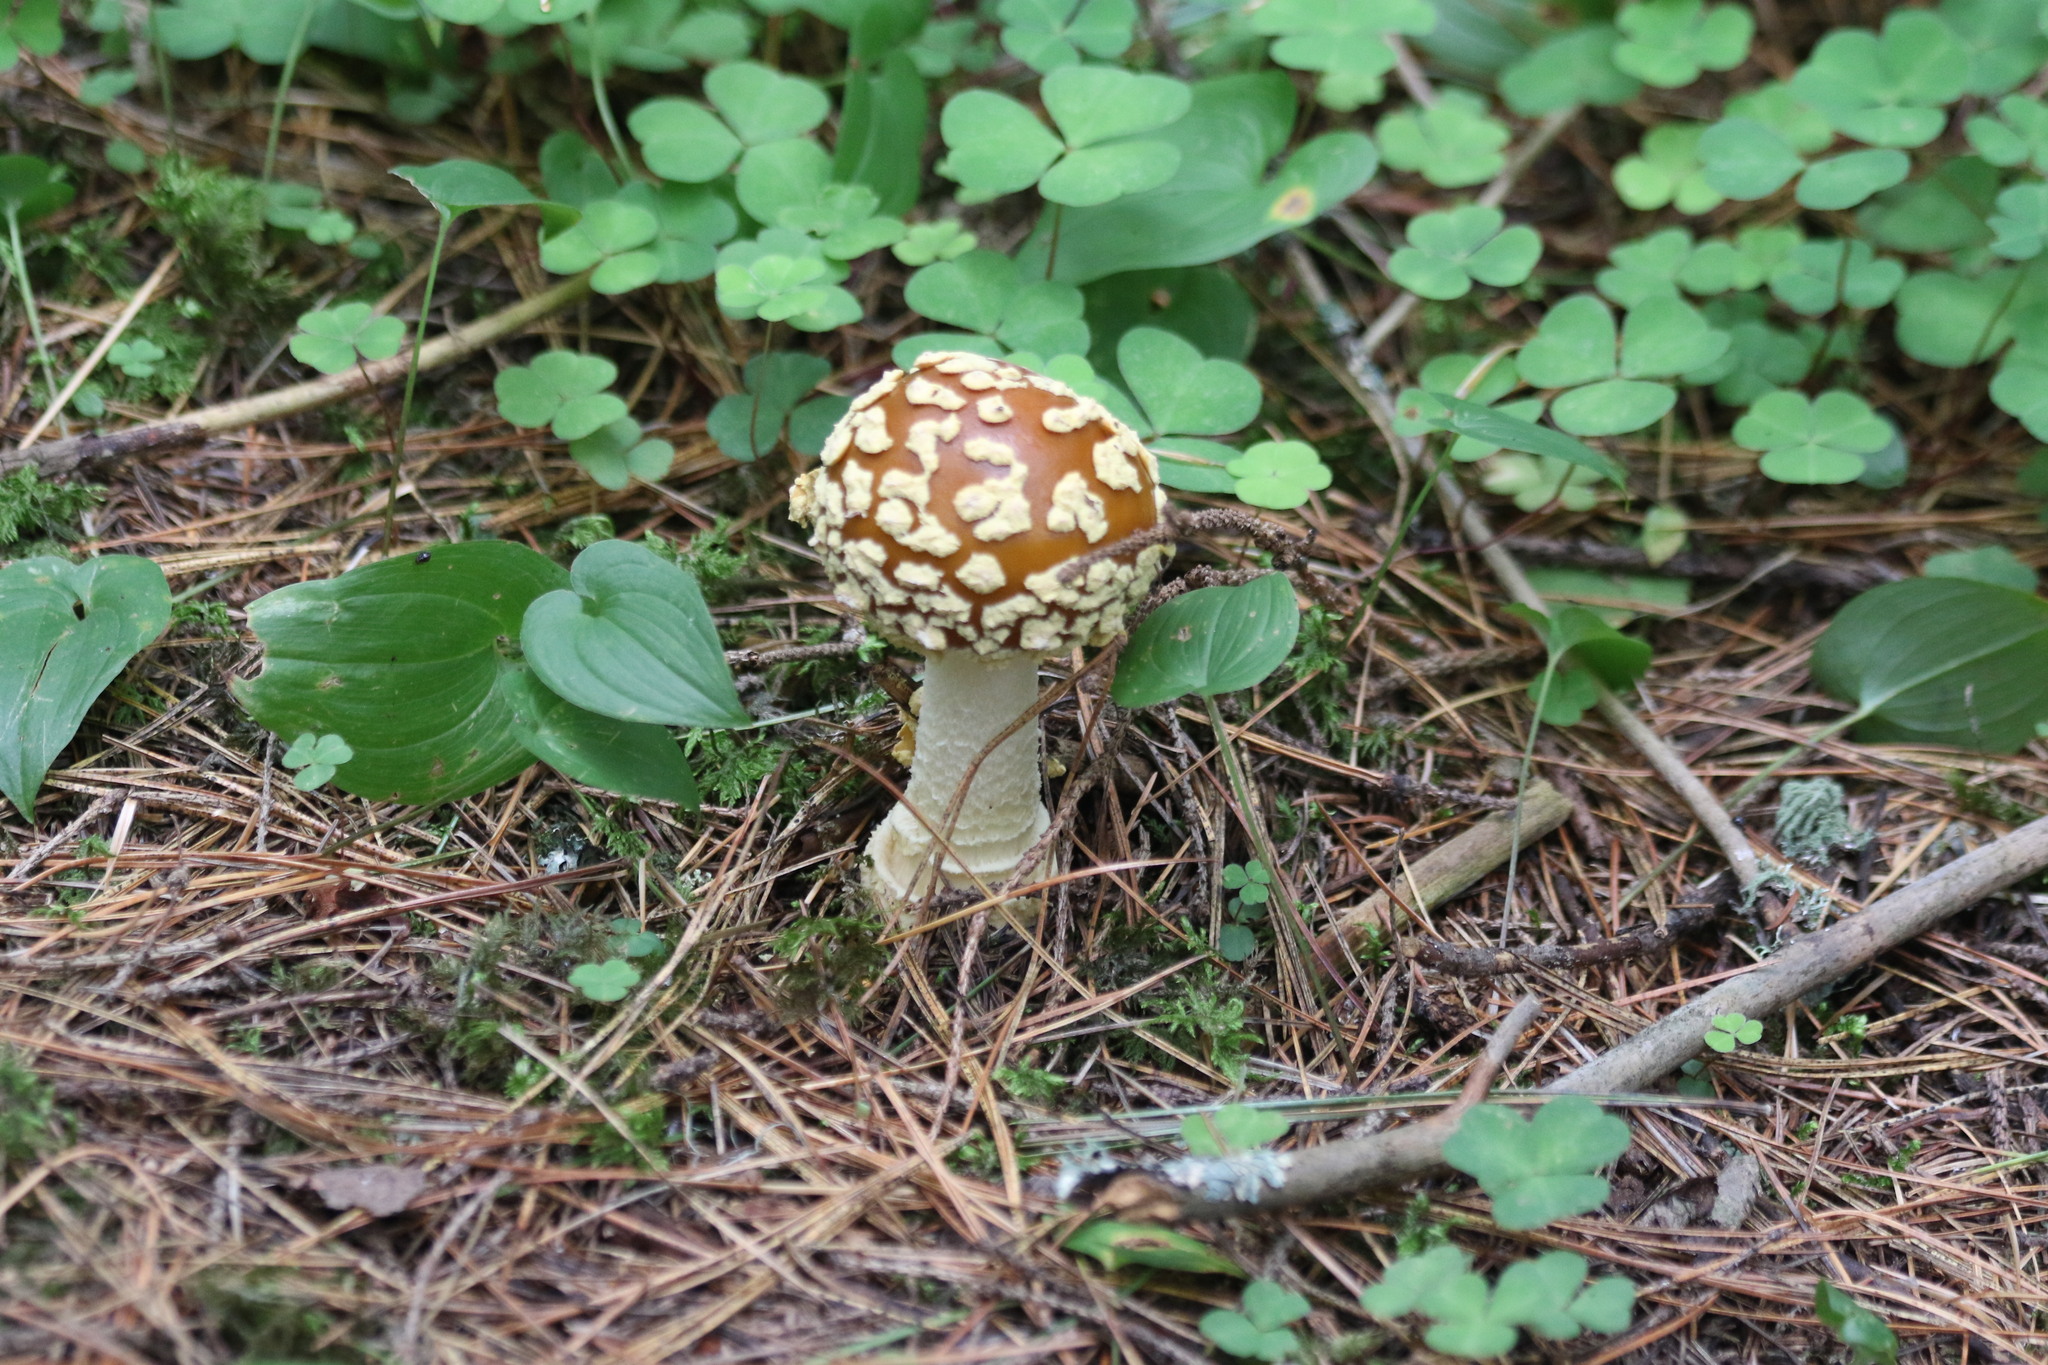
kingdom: Fungi
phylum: Basidiomycota
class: Agaricomycetes
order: Agaricales
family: Amanitaceae
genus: Amanita
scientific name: Amanita regalis
